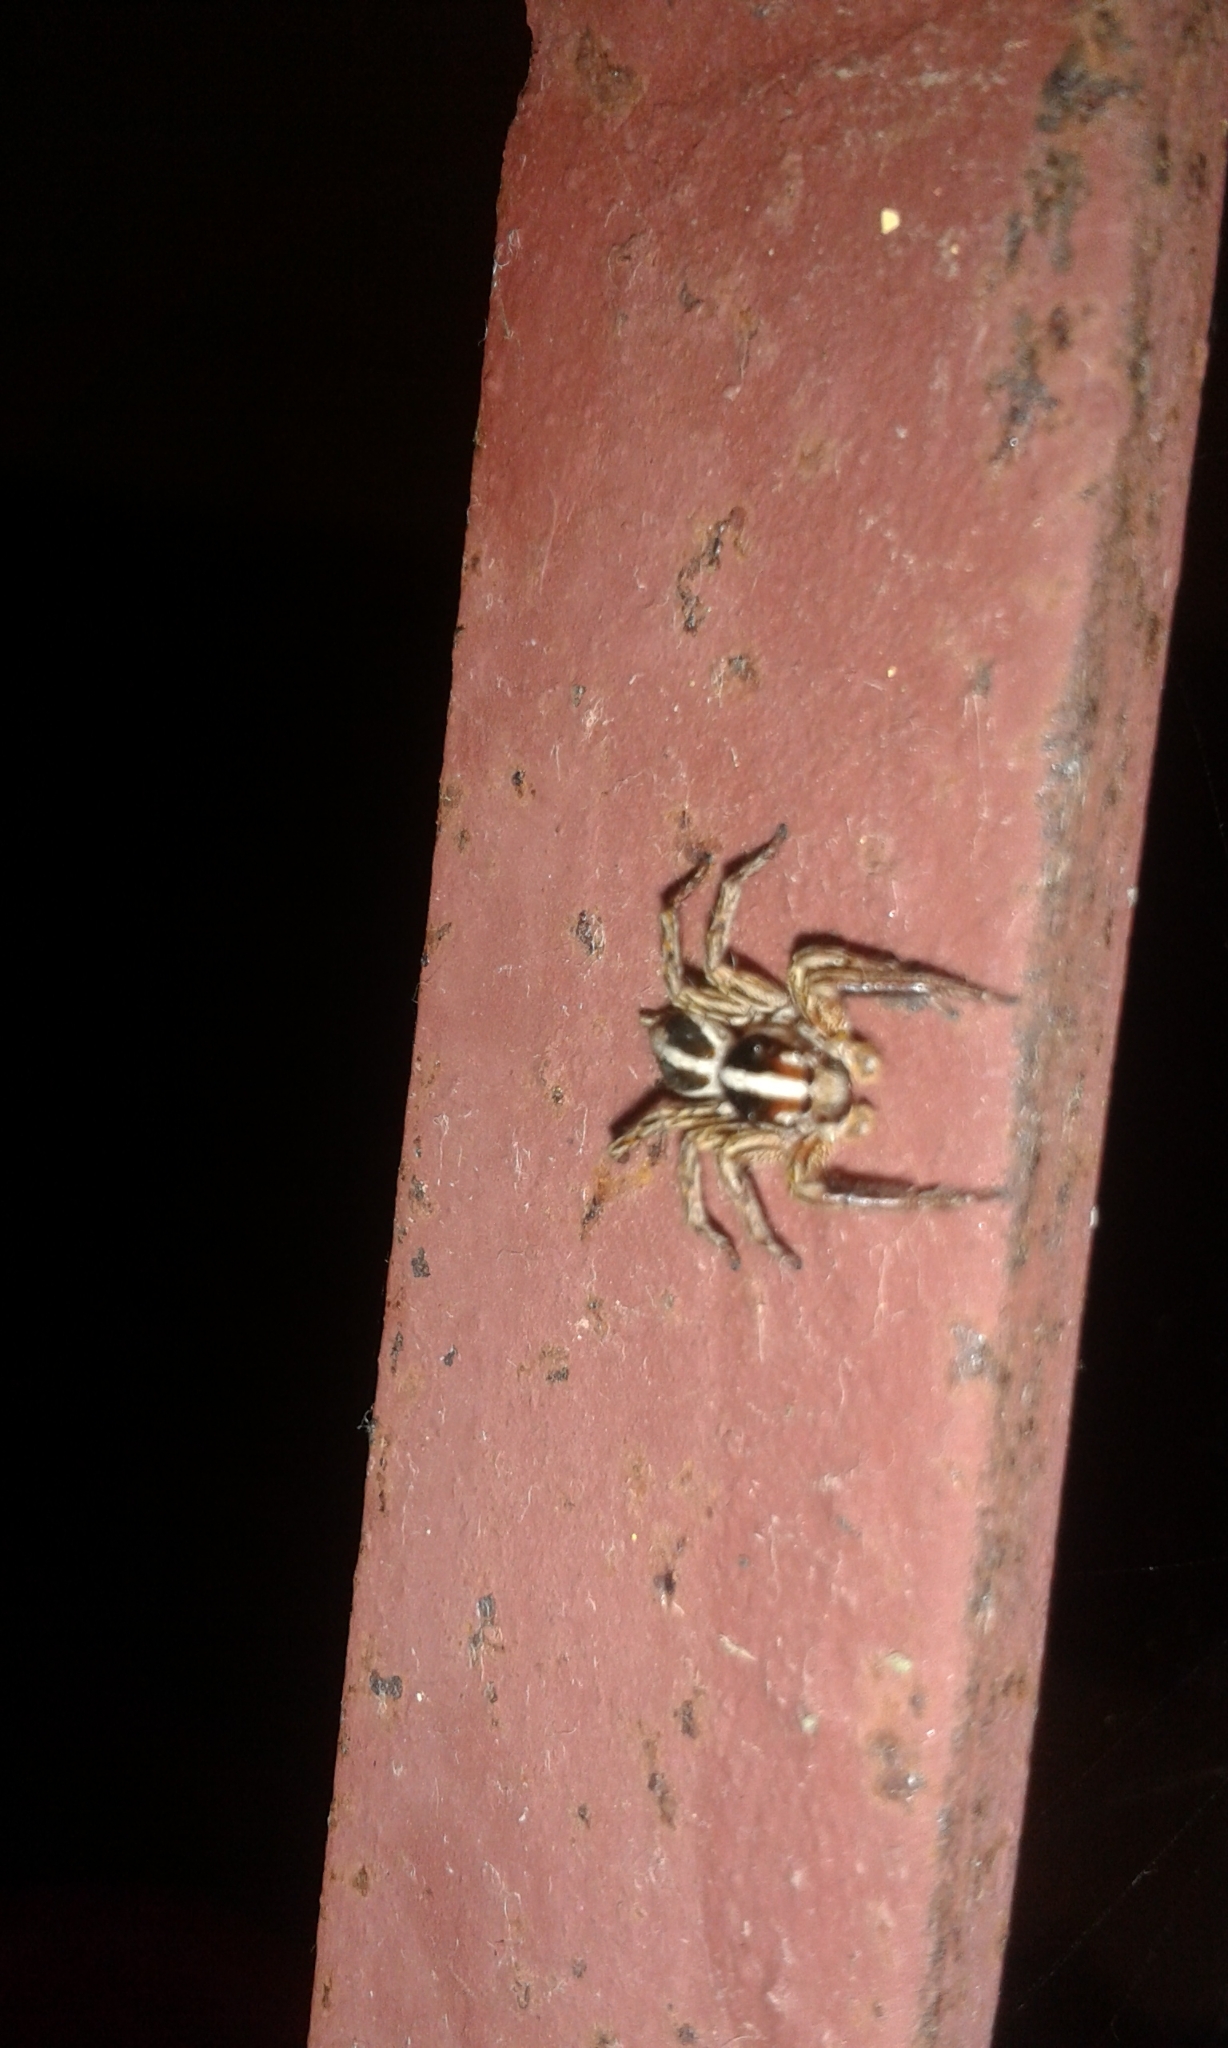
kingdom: Animalia
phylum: Arthropoda
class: Arachnida
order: Araneae
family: Salticidae
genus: Plexippus
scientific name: Plexippus paykulli
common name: Pantropical jumper
